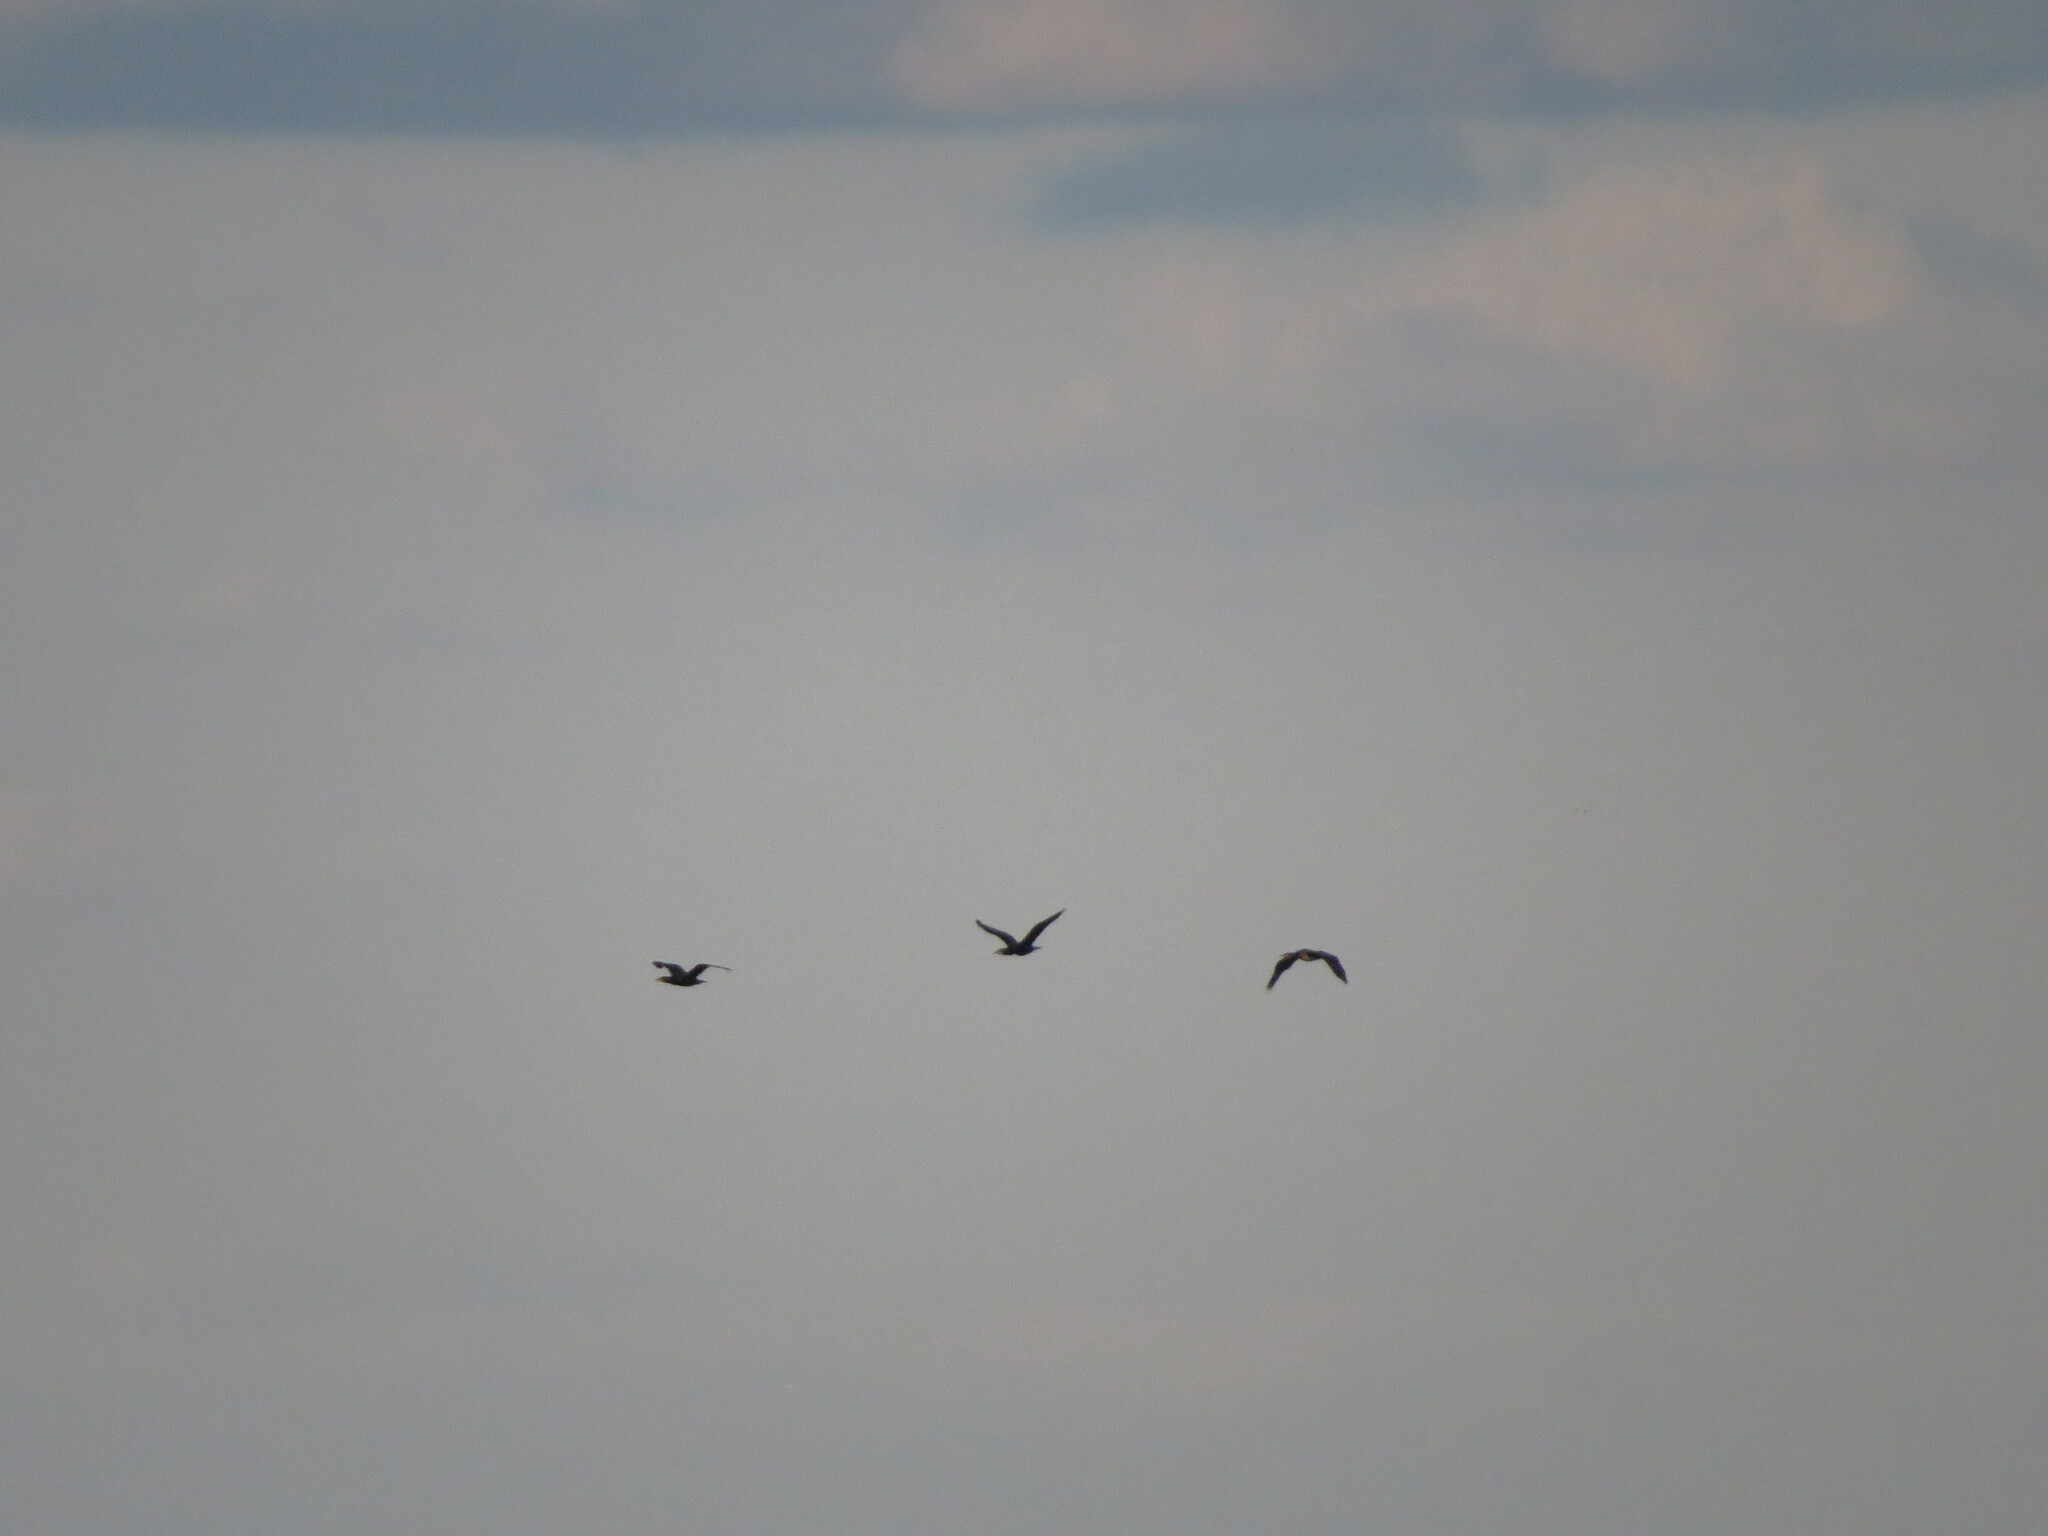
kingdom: Animalia
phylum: Chordata
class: Aves
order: Suliformes
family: Phalacrocoracidae
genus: Phalacrocorax
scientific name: Phalacrocorax carbo
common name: Great cormorant
